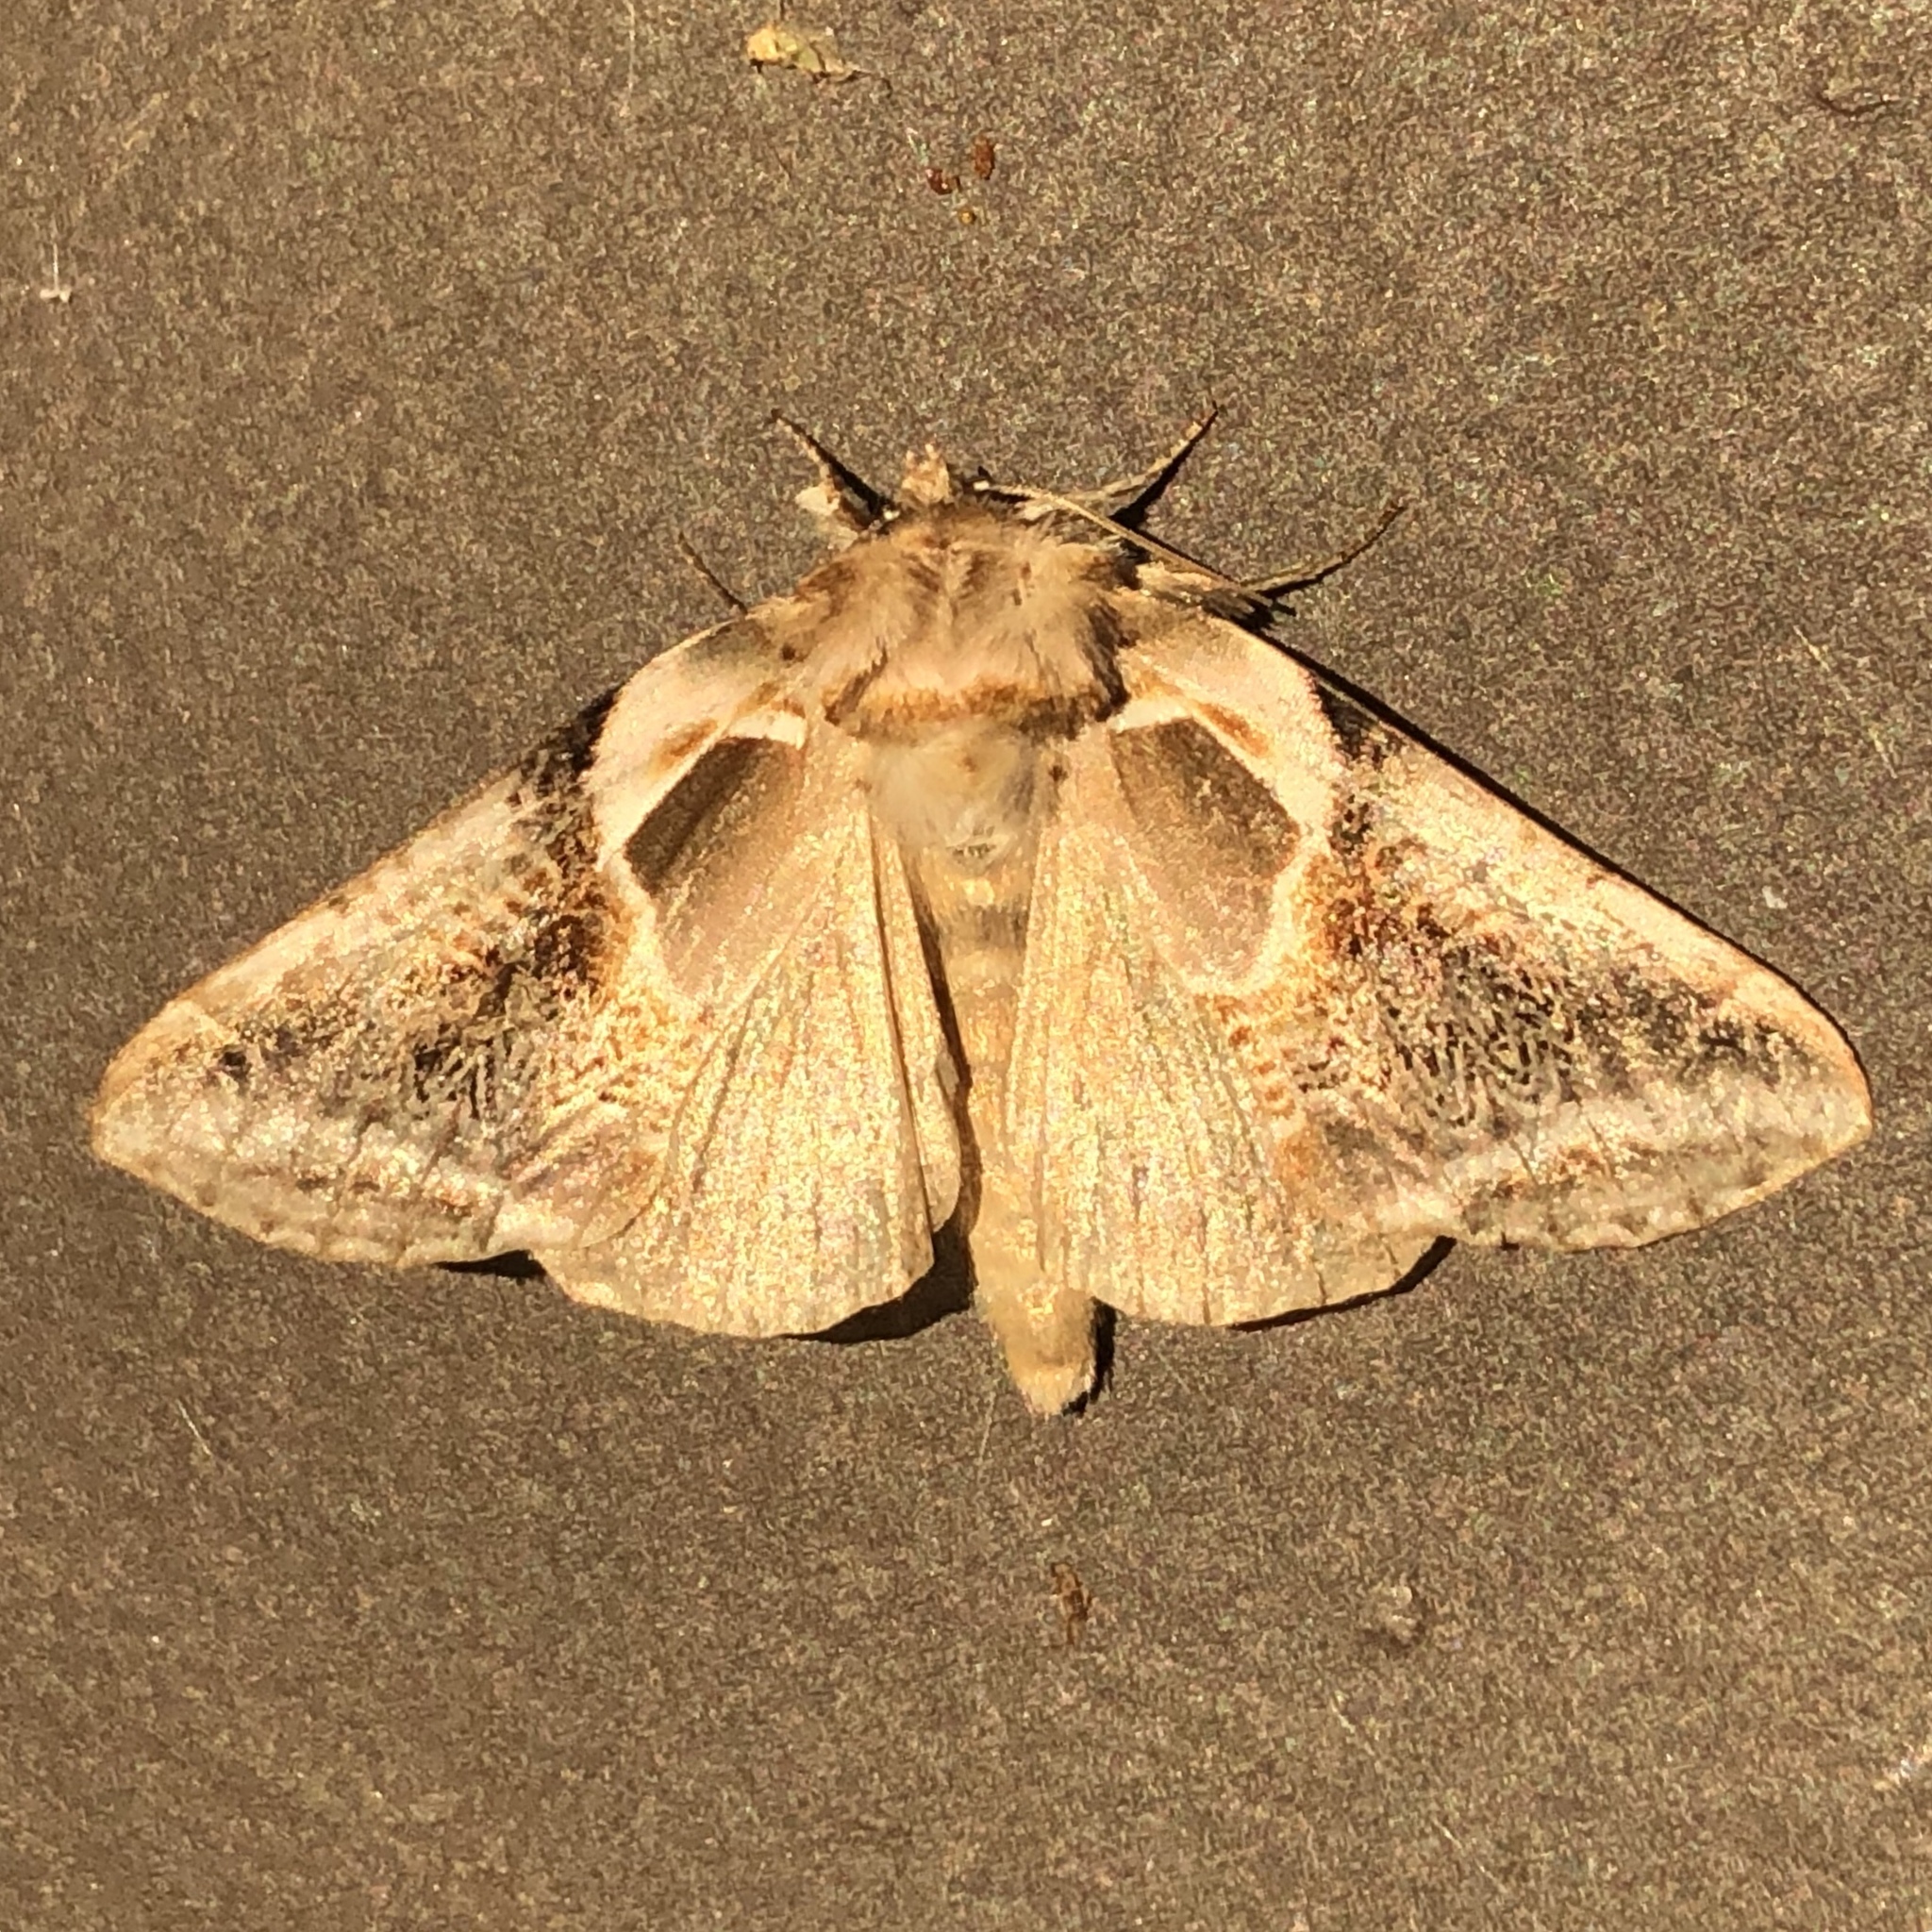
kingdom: Animalia
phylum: Arthropoda
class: Insecta
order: Lepidoptera
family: Drepanidae
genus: Habrosyne
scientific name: Habrosyne scripta
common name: Lettered habrosyne moth
